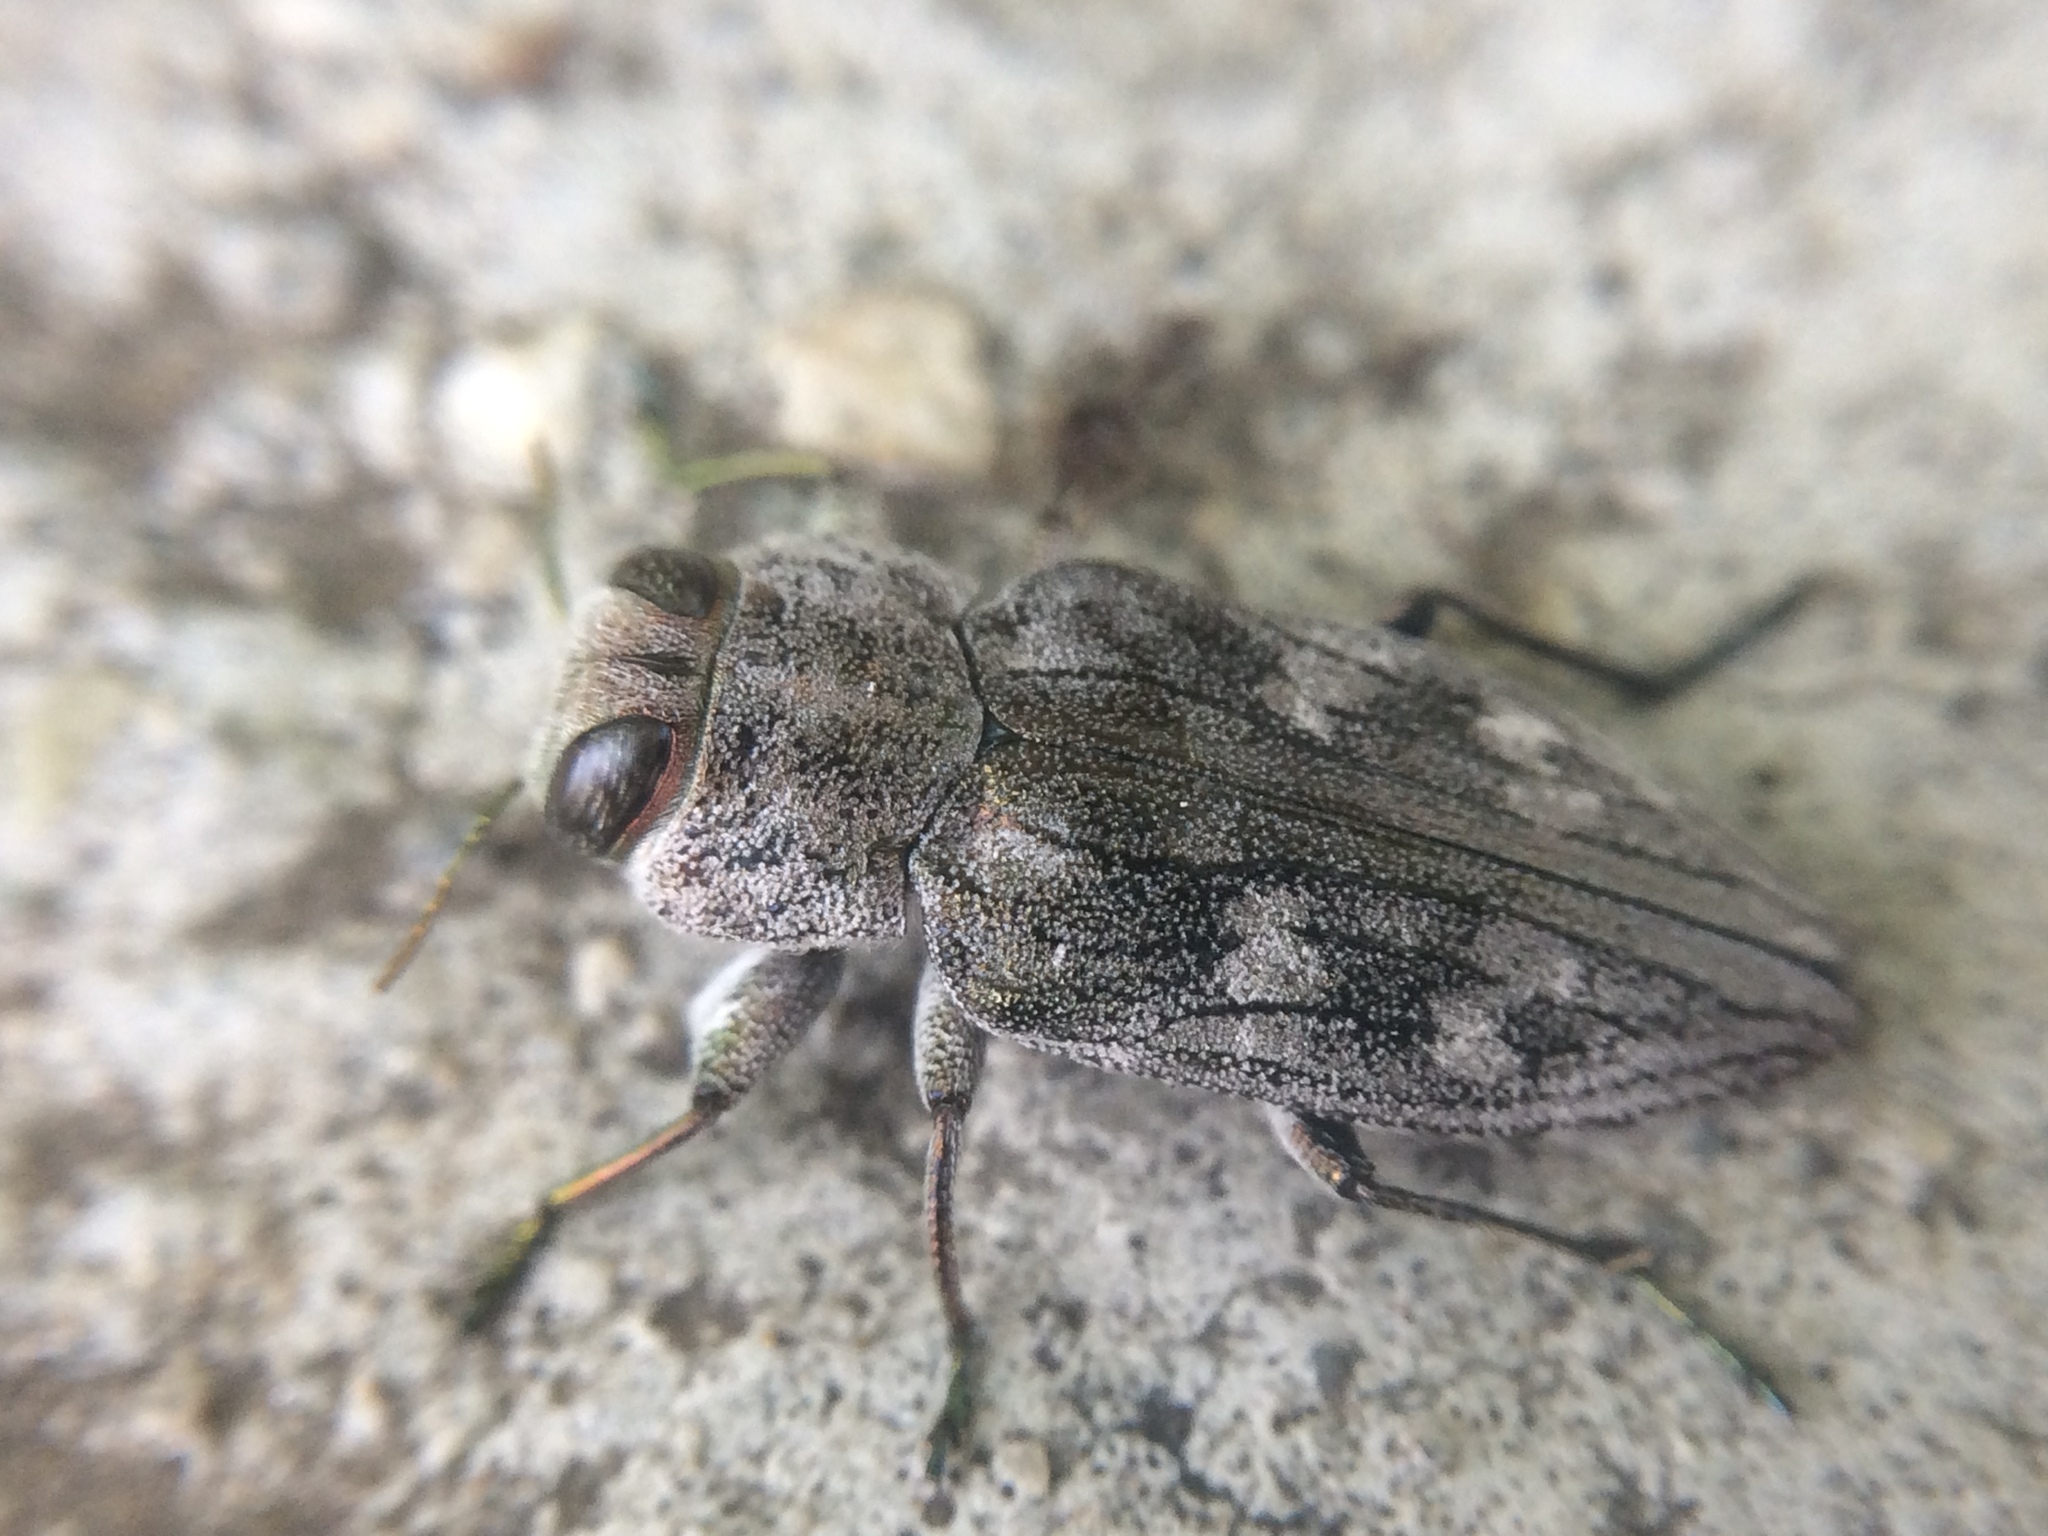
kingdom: Animalia
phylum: Arthropoda
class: Insecta
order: Coleoptera
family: Buprestidae
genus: Chrysobothris
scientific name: Chrysobothris femorata
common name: Flat-headed apple tree borer
